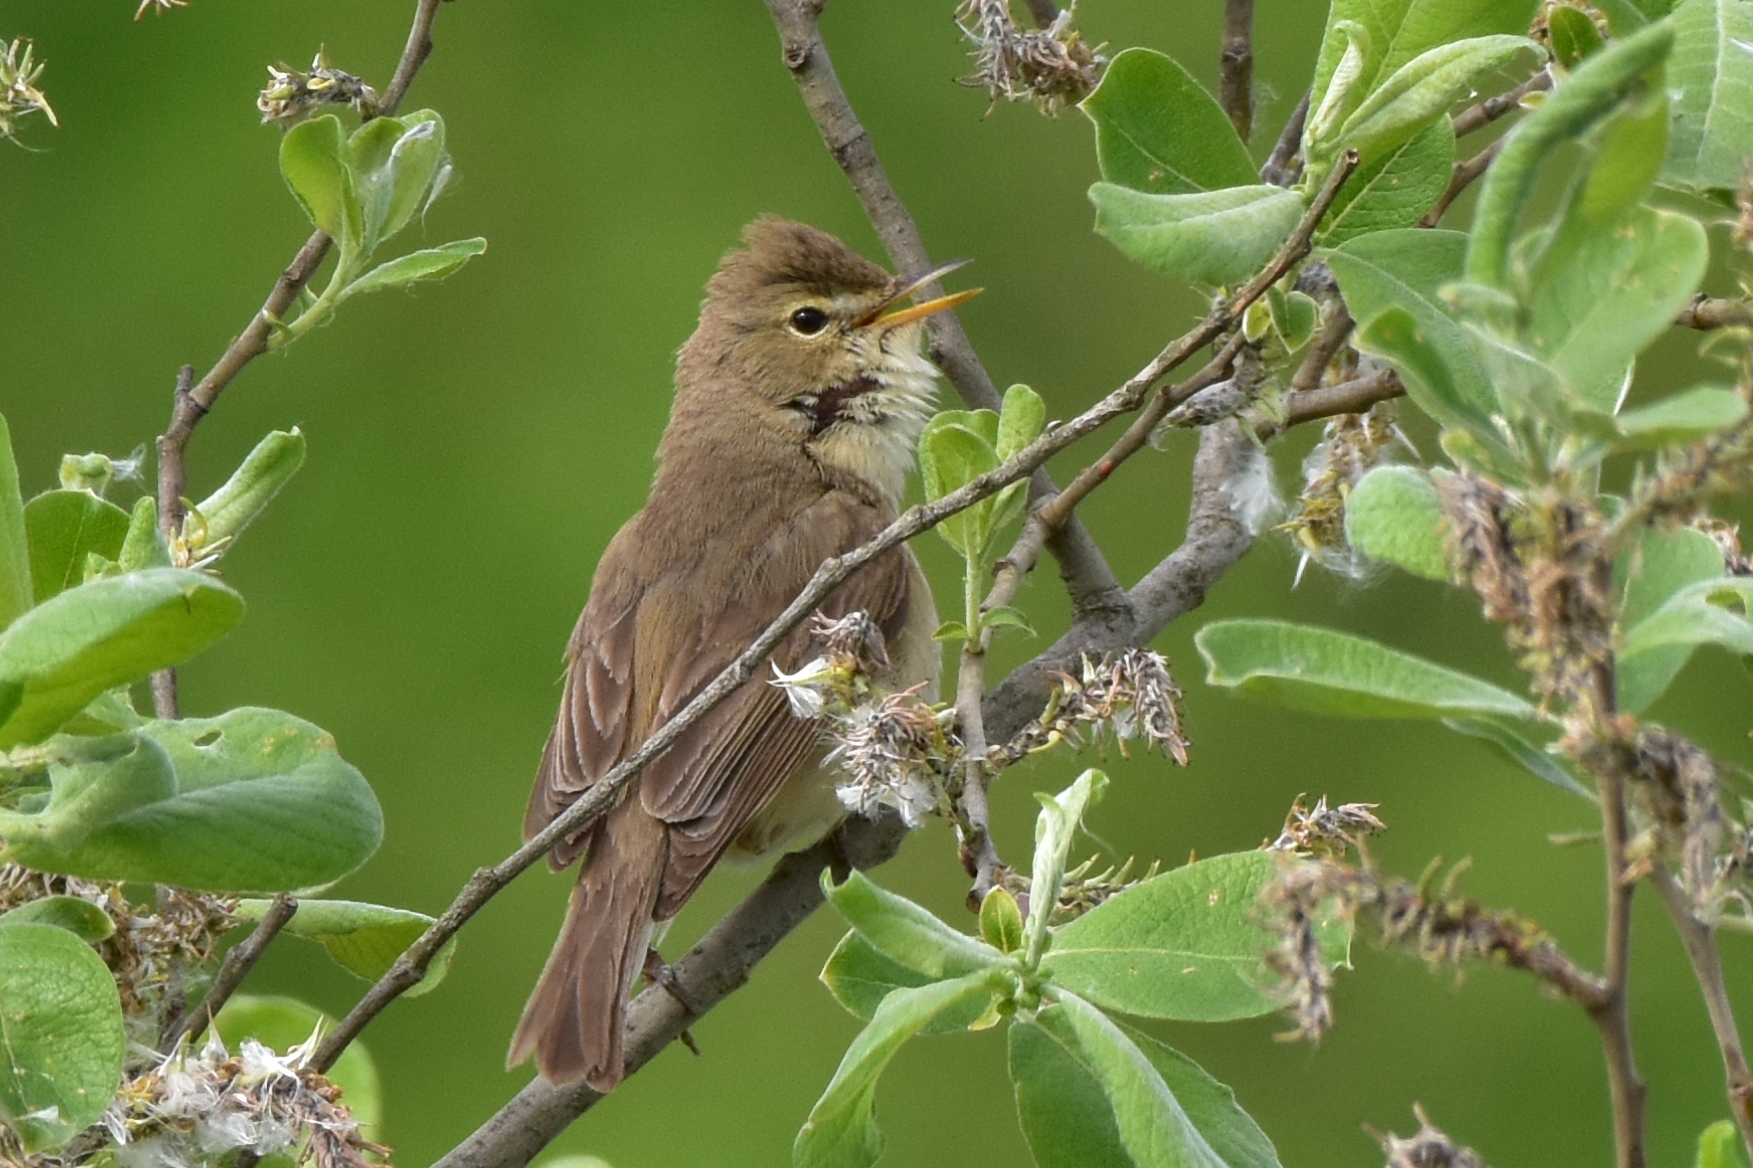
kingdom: Animalia
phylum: Chordata
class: Aves
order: Passeriformes
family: Acrocephalidae
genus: Acrocephalus
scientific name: Acrocephalus dumetorum
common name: Blyth's reed warbler
